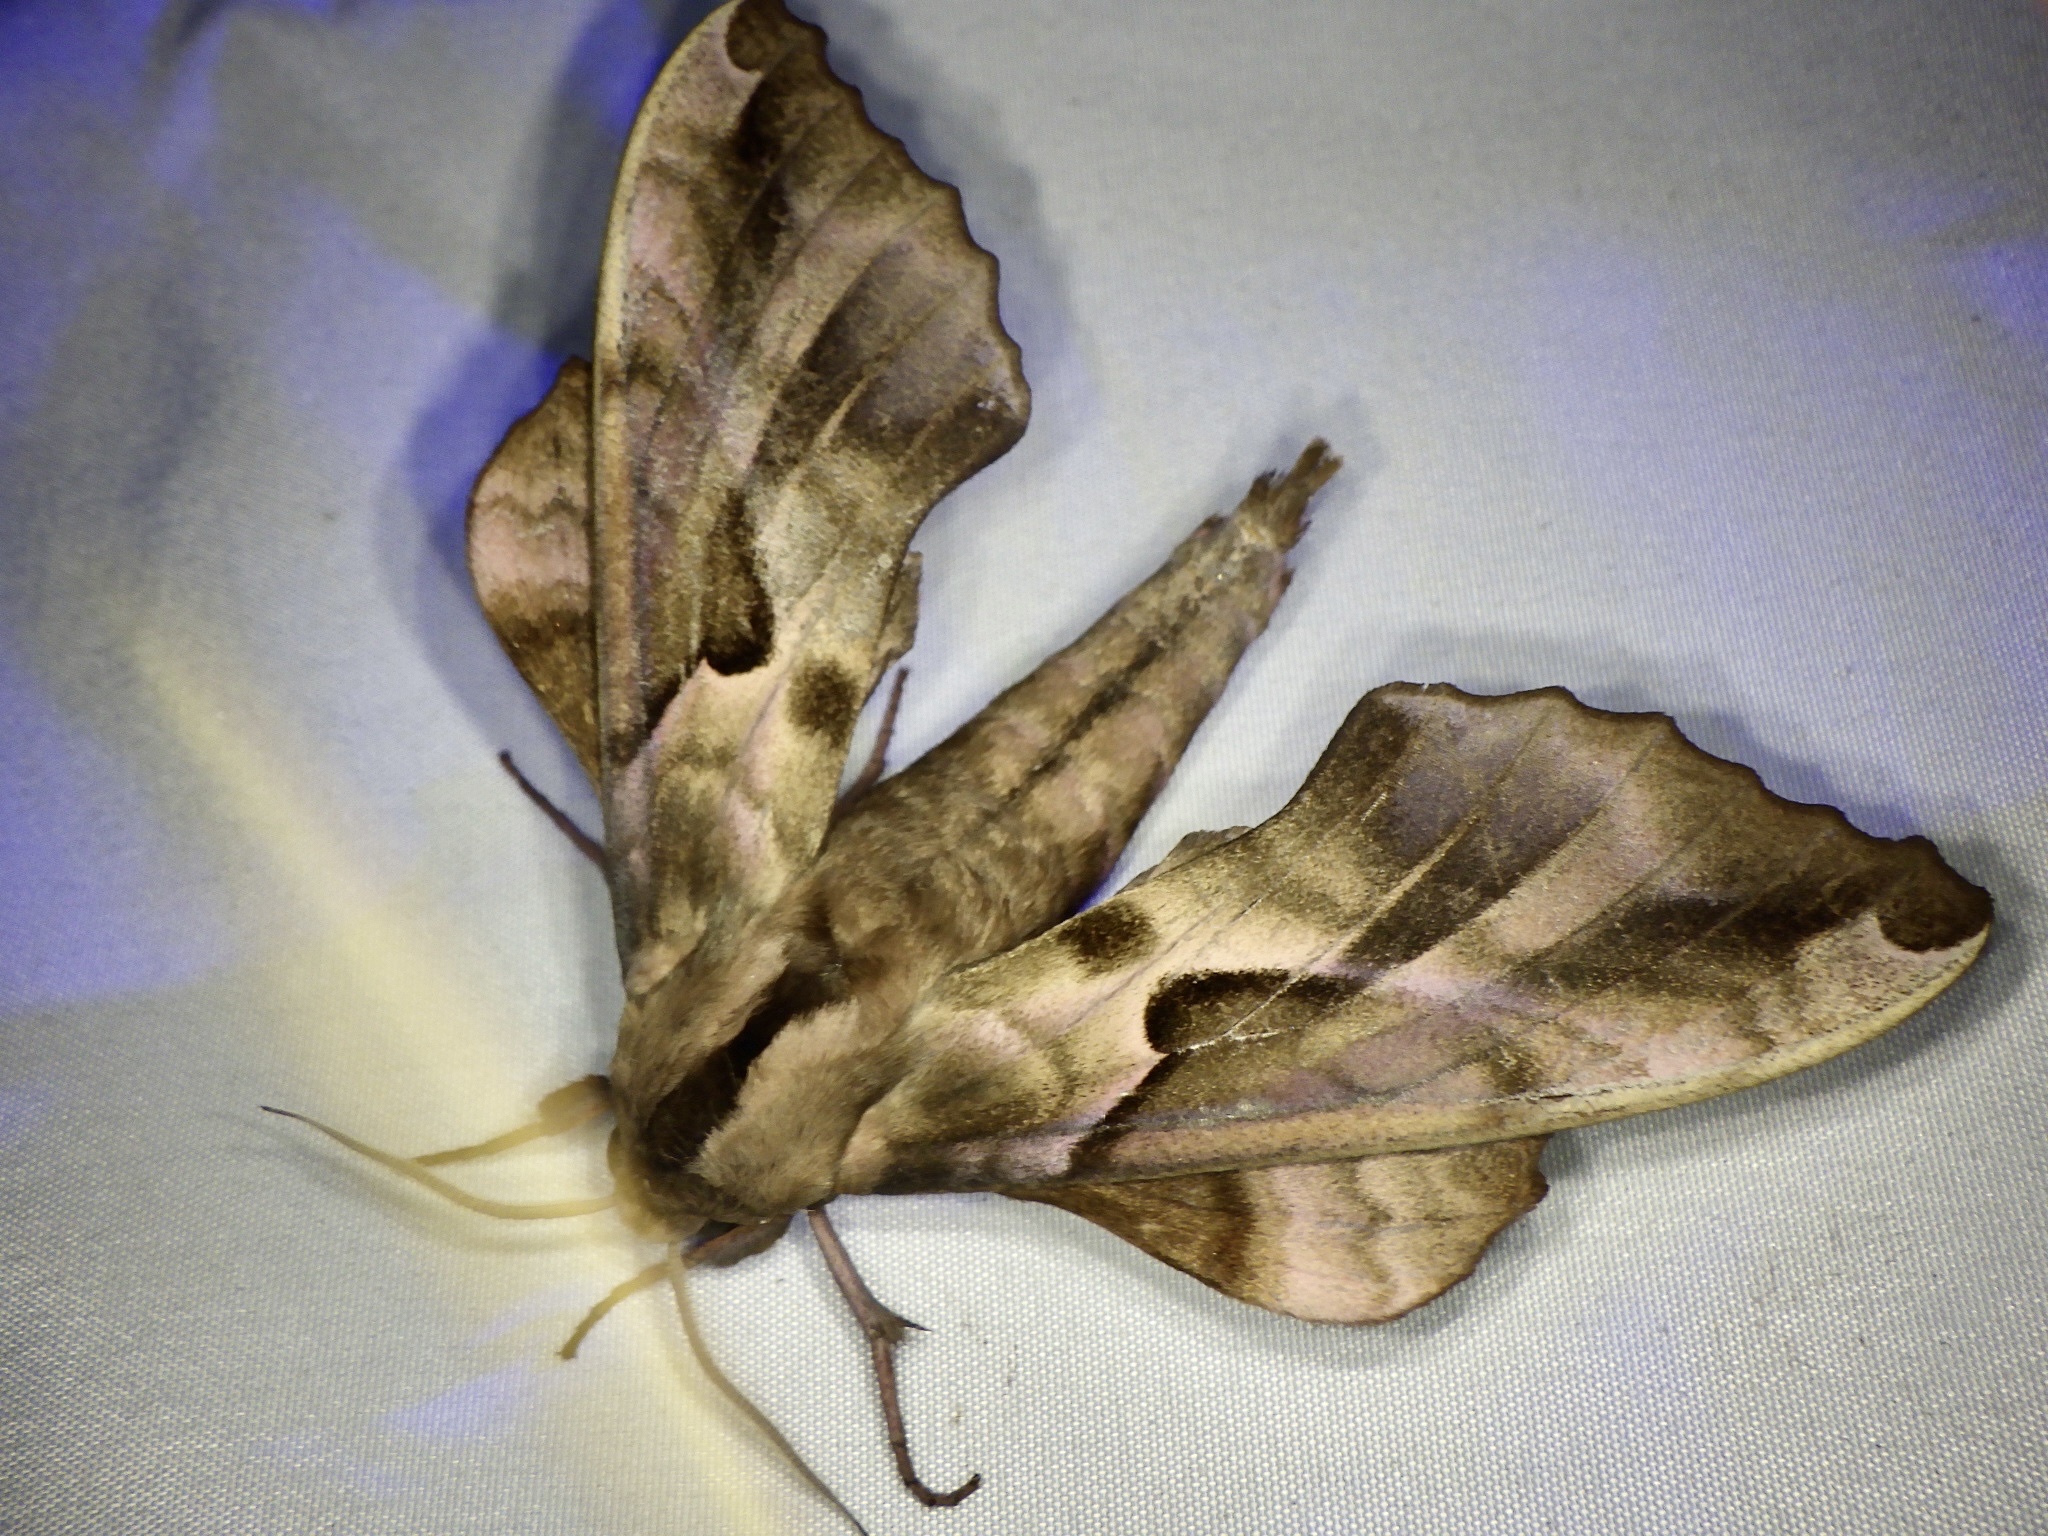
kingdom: Animalia
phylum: Arthropoda
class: Insecta
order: Lepidoptera
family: Sphingidae
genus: Phyllosphingia
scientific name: Phyllosphingia dissimilis
